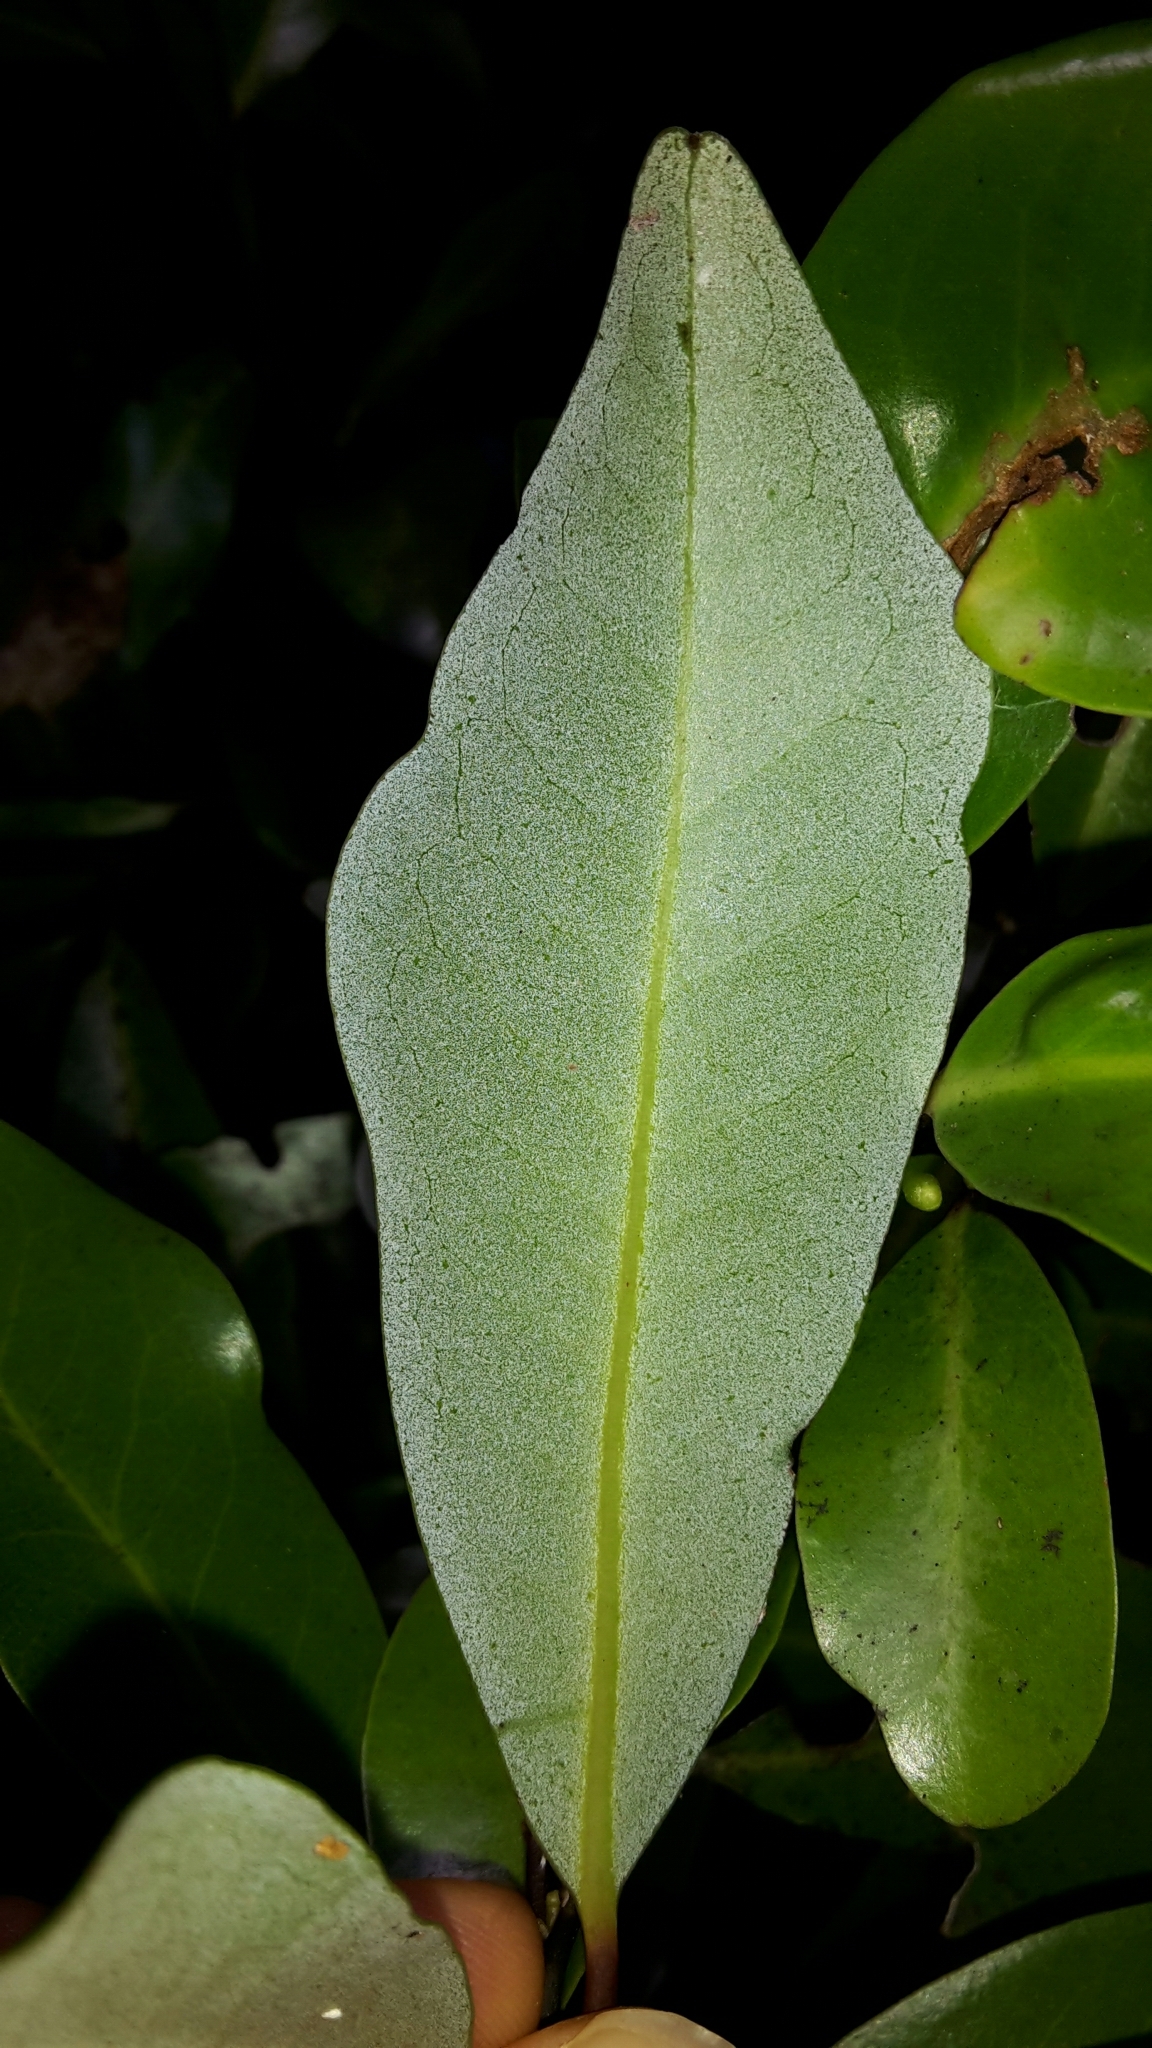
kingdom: Plantae
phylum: Tracheophyta
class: Magnoliopsida
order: Canellales
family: Winteraceae
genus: Pseudowintera
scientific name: Pseudowintera axillaris
